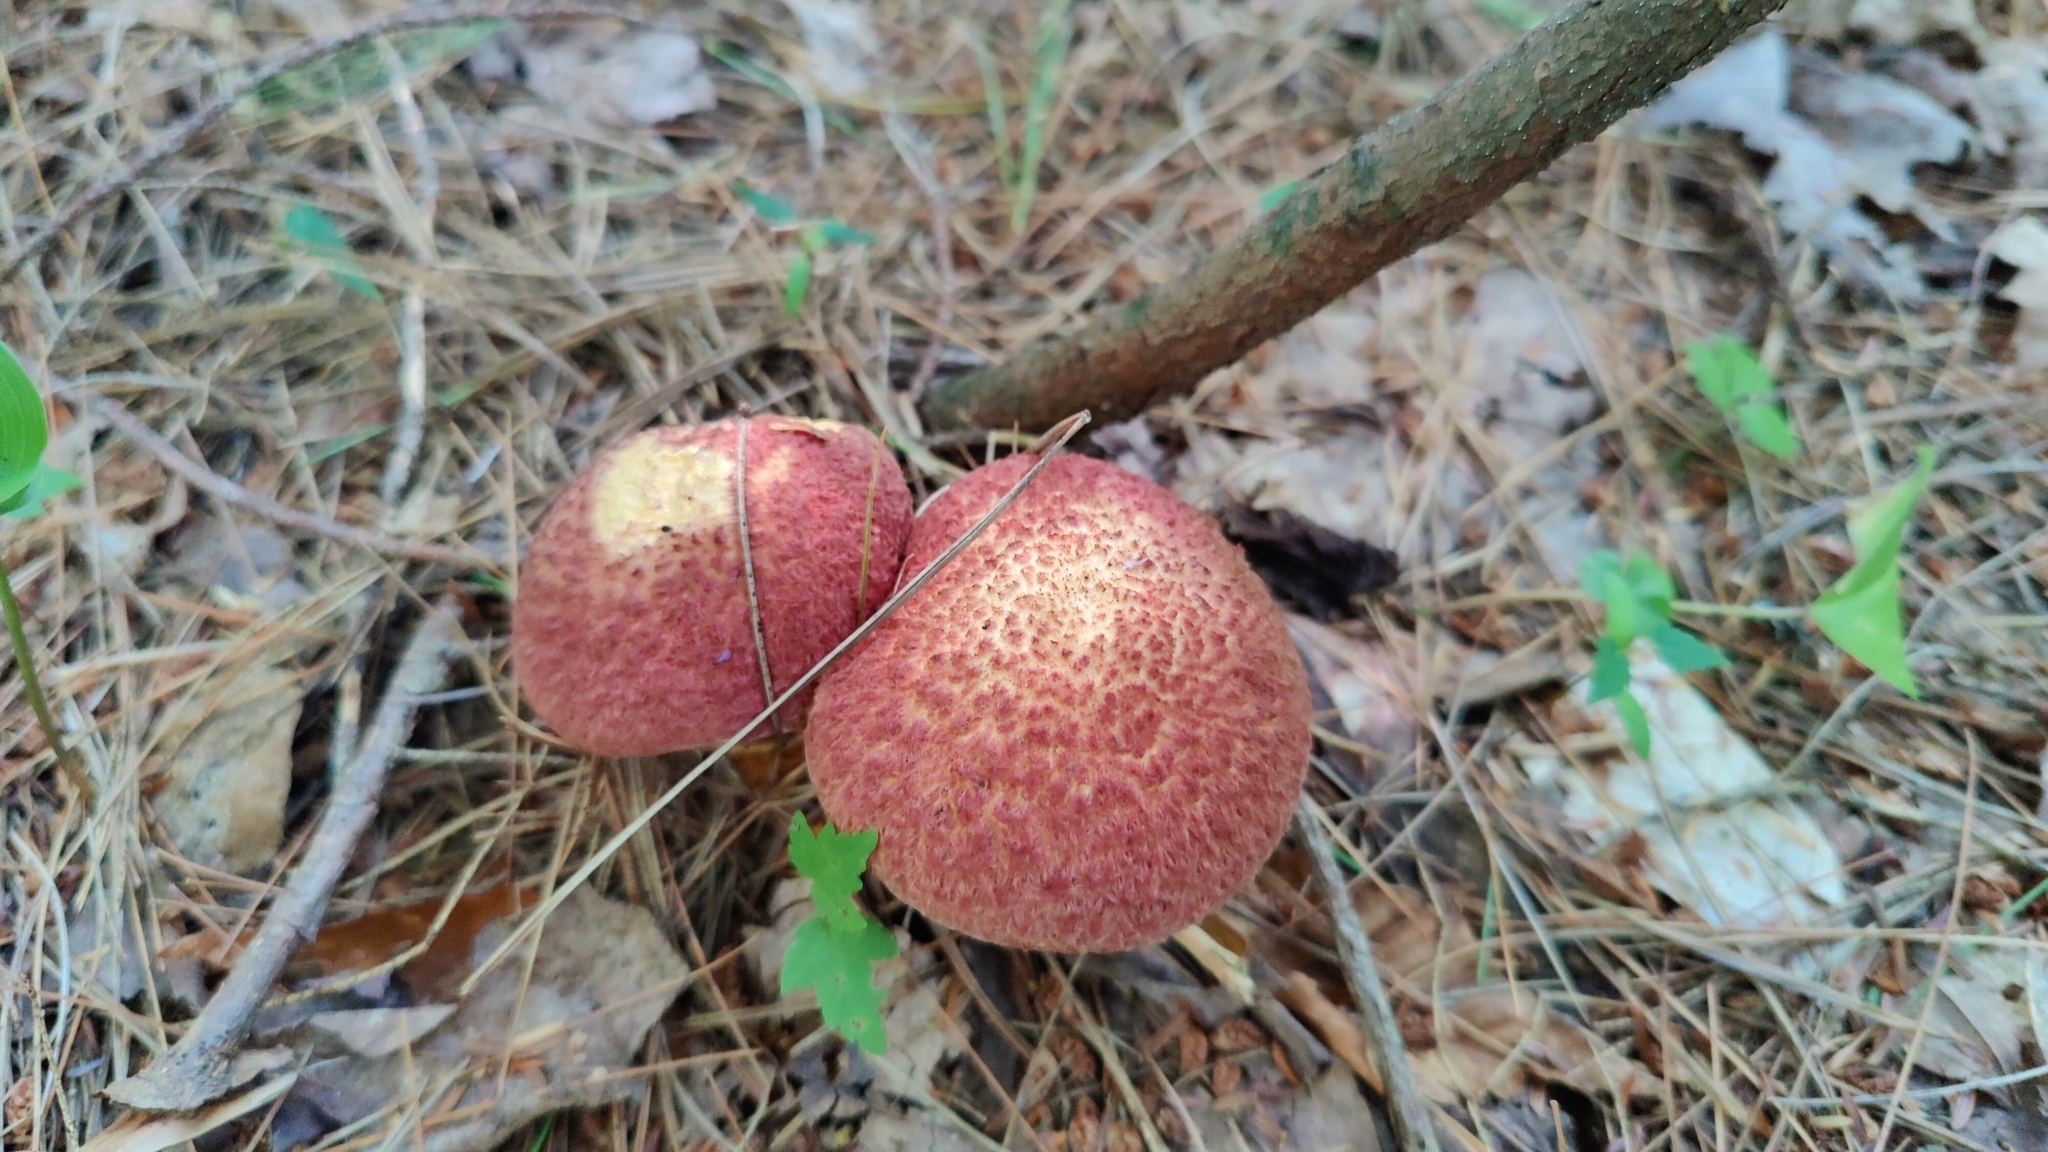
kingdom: Fungi
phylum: Basidiomycota
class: Agaricomycetes
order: Boletales
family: Suillaceae
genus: Suillus
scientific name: Suillus spraguei
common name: Painted suillus
